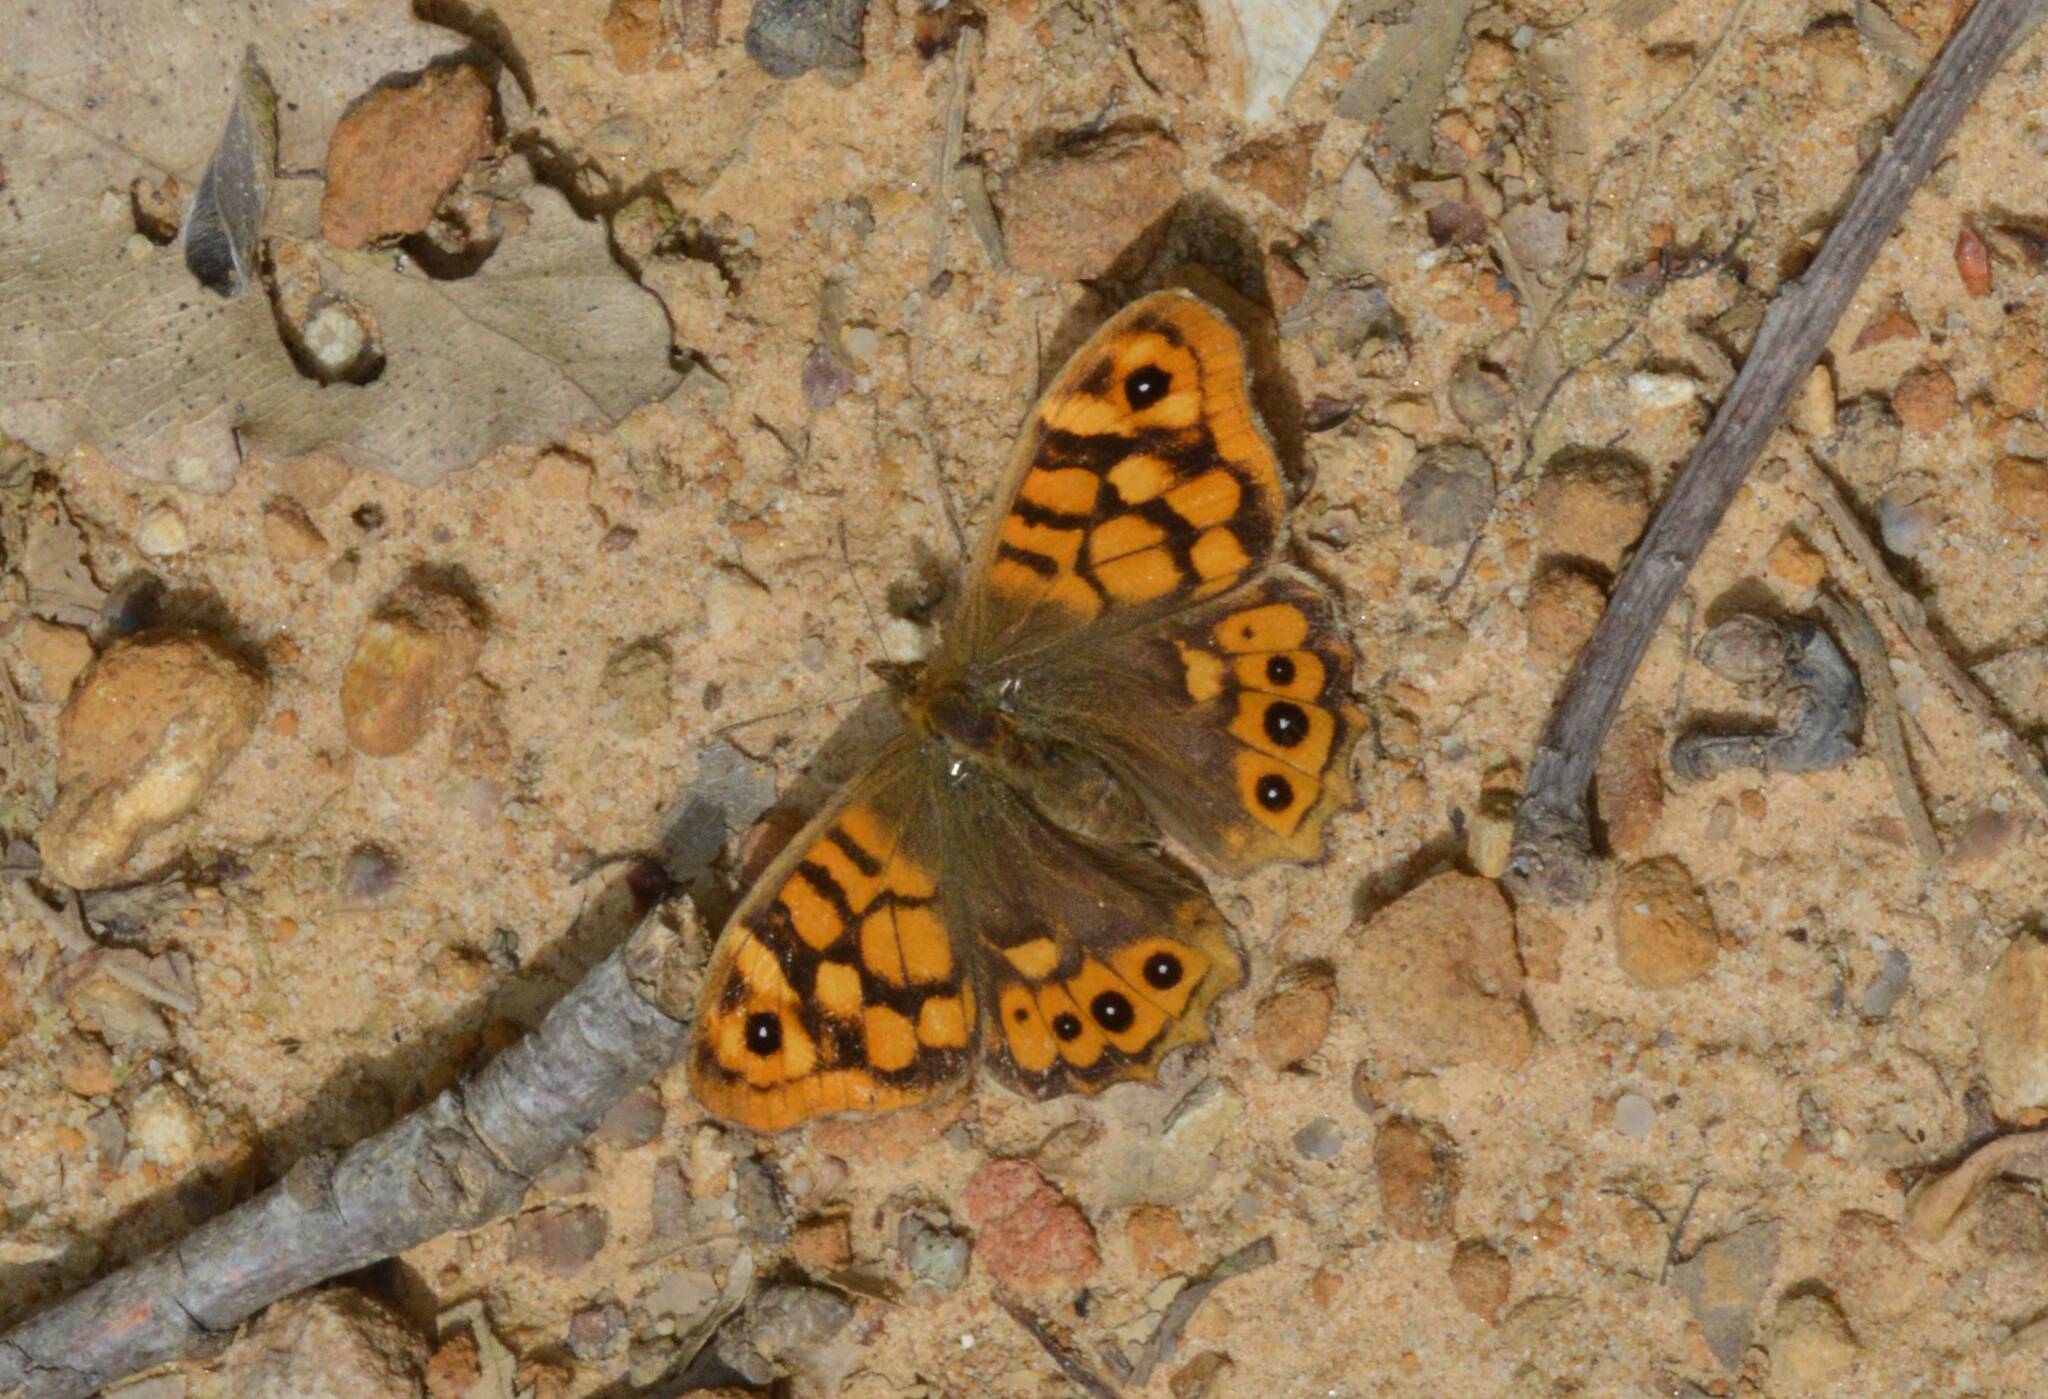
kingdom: Animalia
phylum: Arthropoda
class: Insecta
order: Lepidoptera
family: Nymphalidae
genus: Pararge
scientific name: Pararge aegeria
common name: Speckled wood
